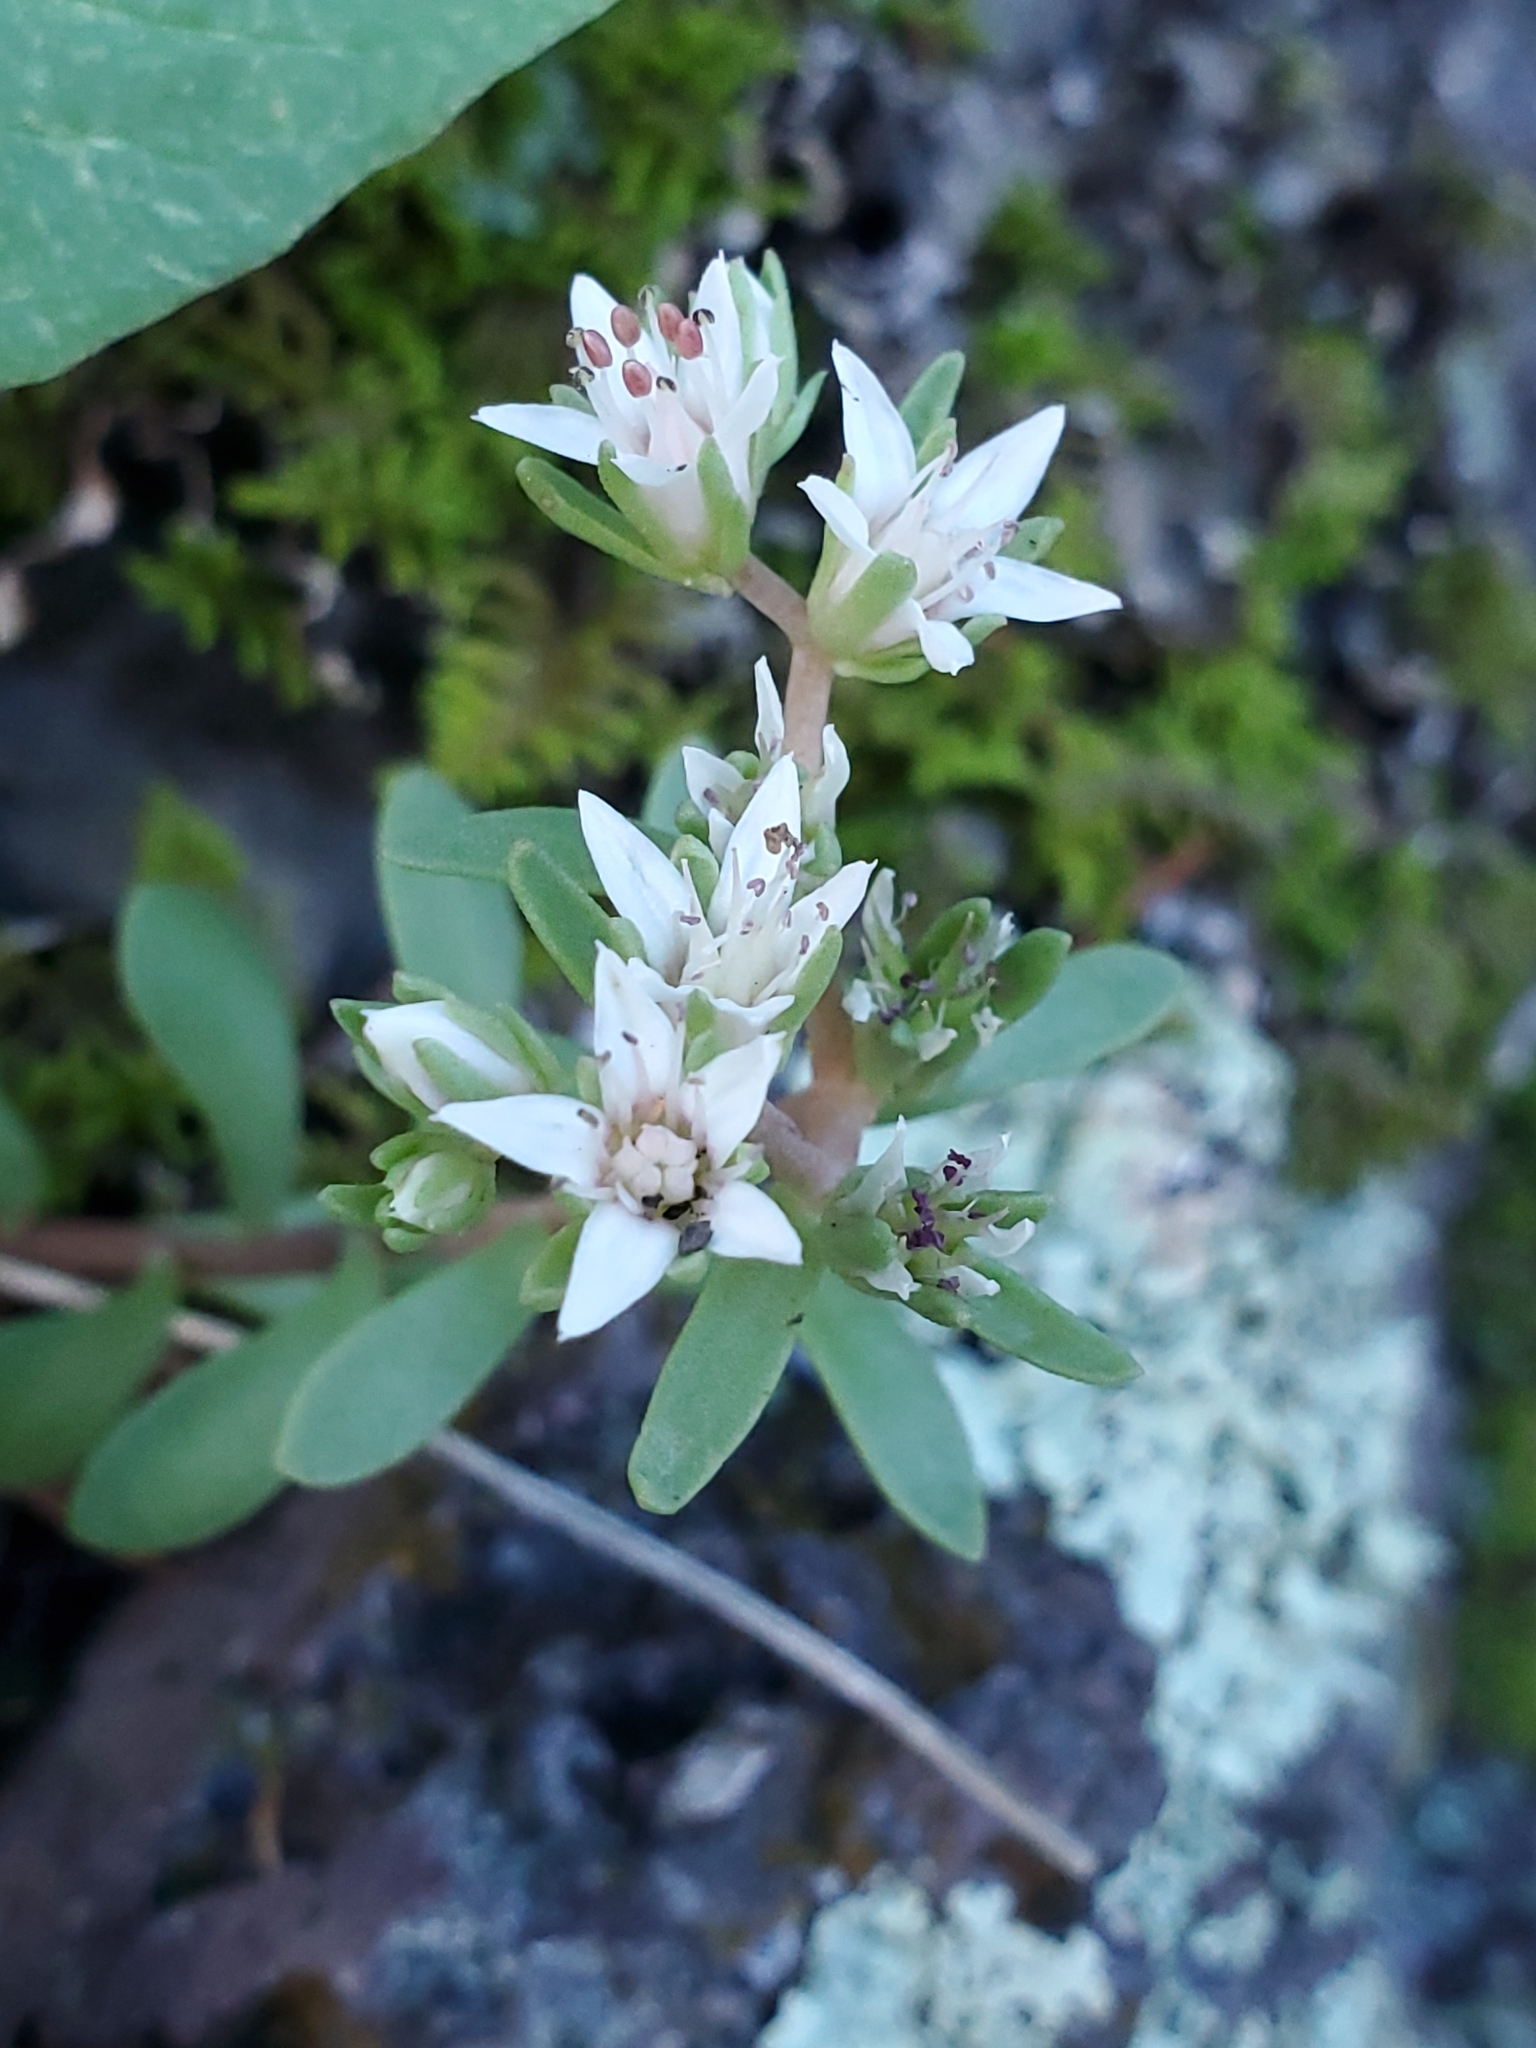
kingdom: Plantae
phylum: Tracheophyta
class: Magnoliopsida
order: Saxifragales
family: Crassulaceae
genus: Sedum
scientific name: Sedum cockerellii
